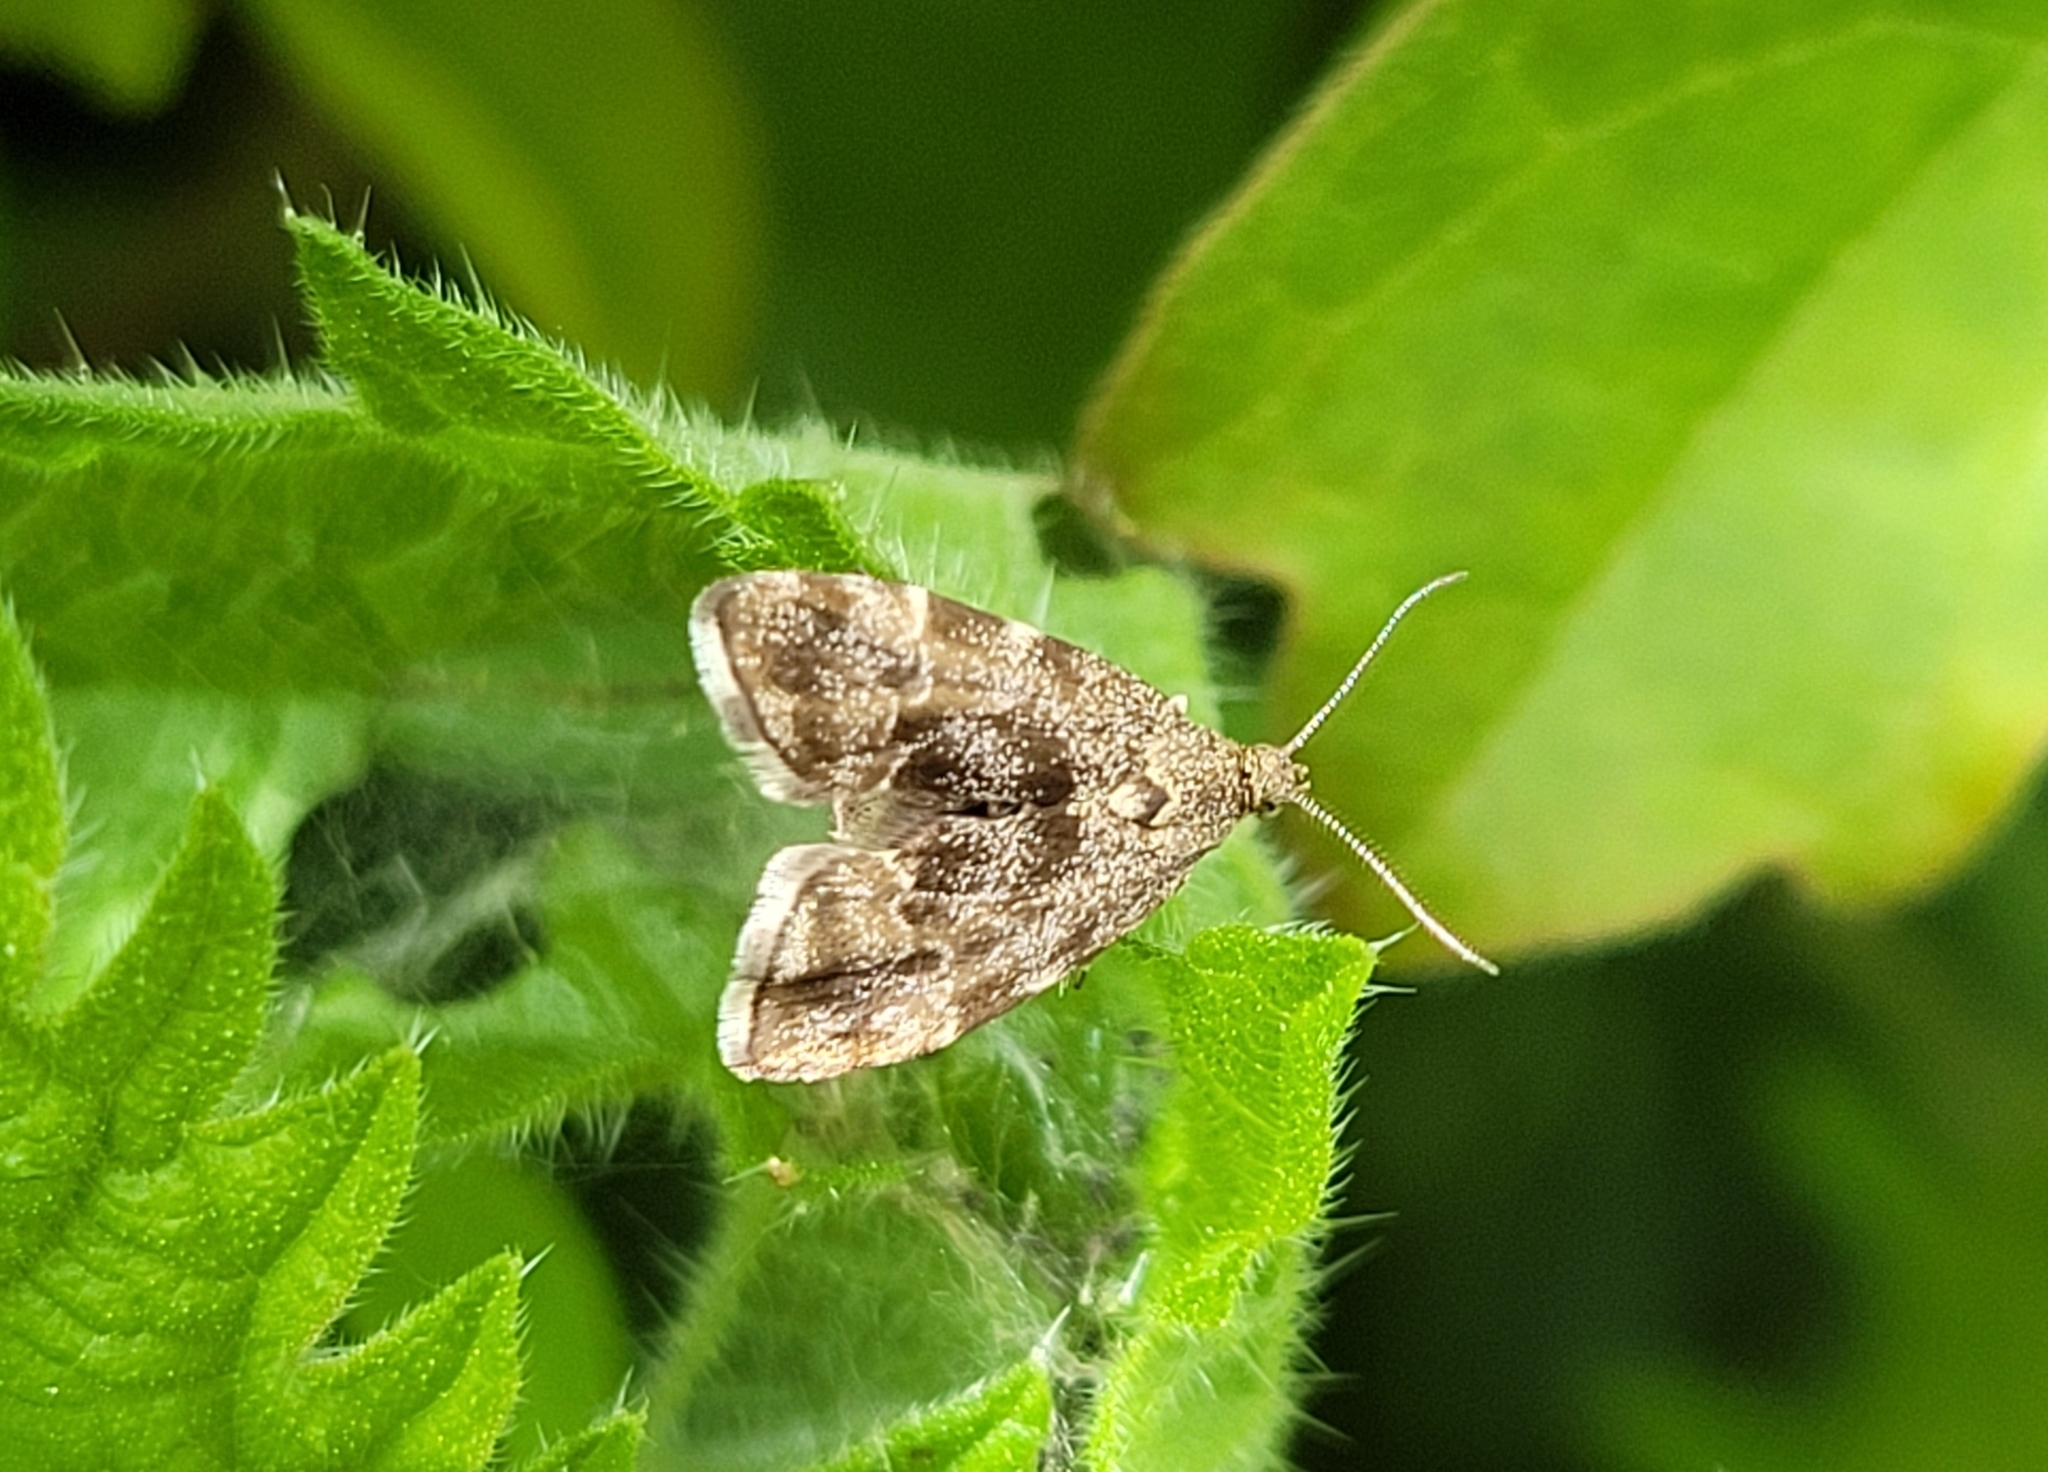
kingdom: Animalia
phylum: Arthropoda
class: Insecta
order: Lepidoptera
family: Choreutidae
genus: Anthophila
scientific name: Anthophila fabriciana
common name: Nettle-tap
